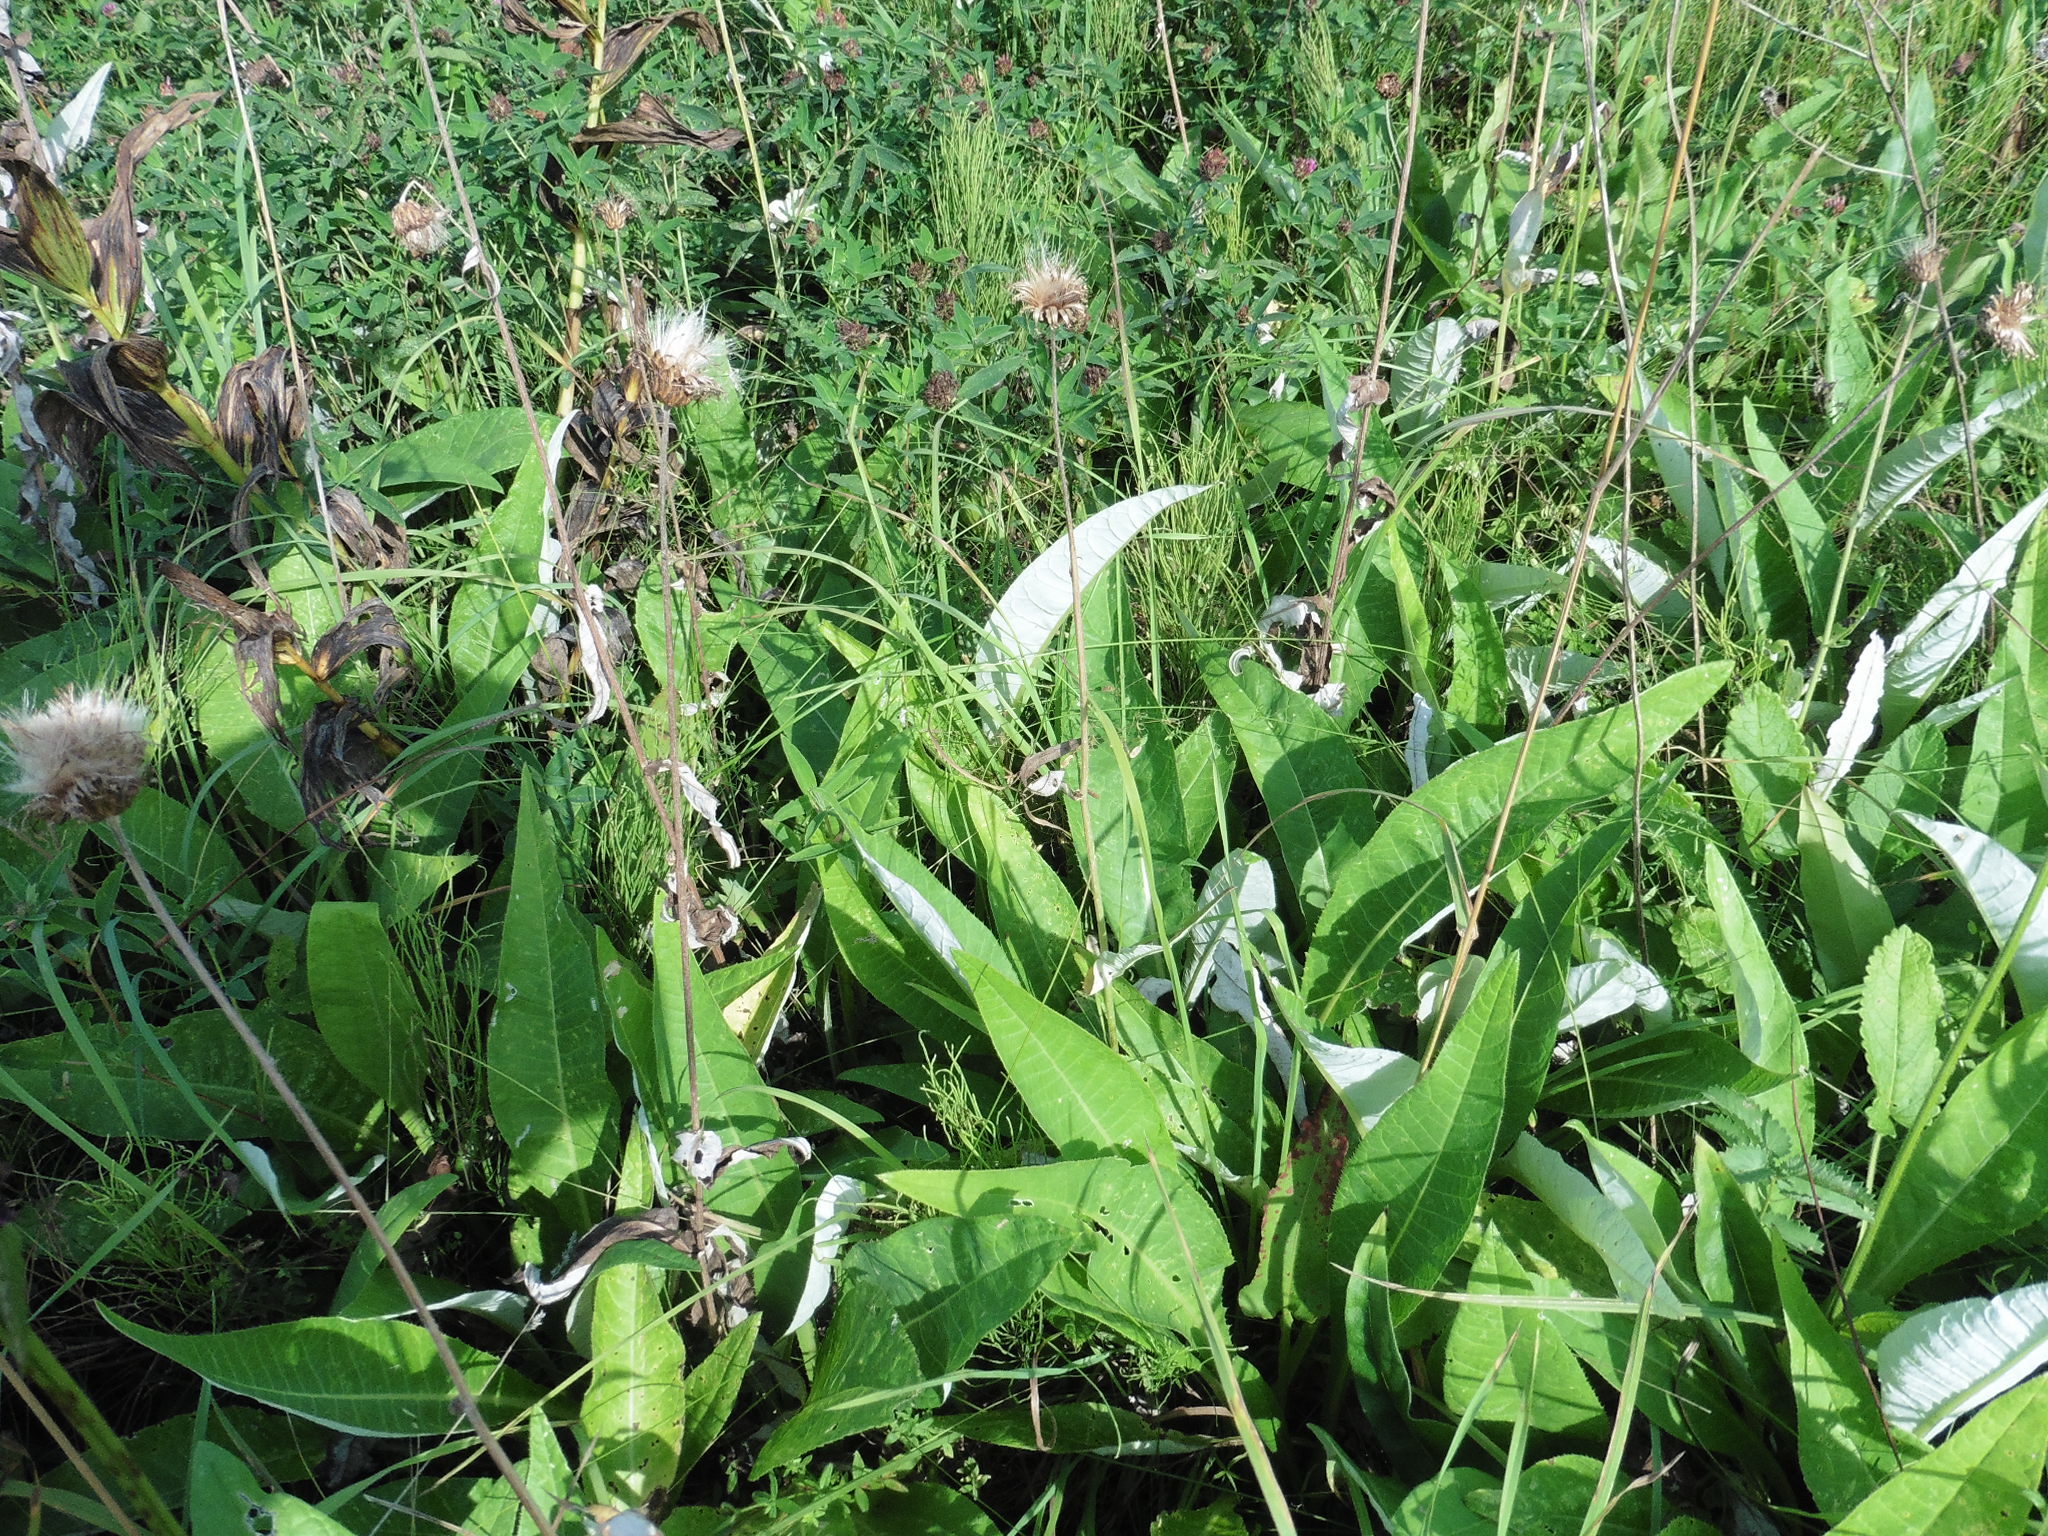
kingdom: Plantae
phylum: Tracheophyta
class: Magnoliopsida
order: Asterales
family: Asteraceae
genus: Cirsium
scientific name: Cirsium canum
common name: Queen anne's thistle
